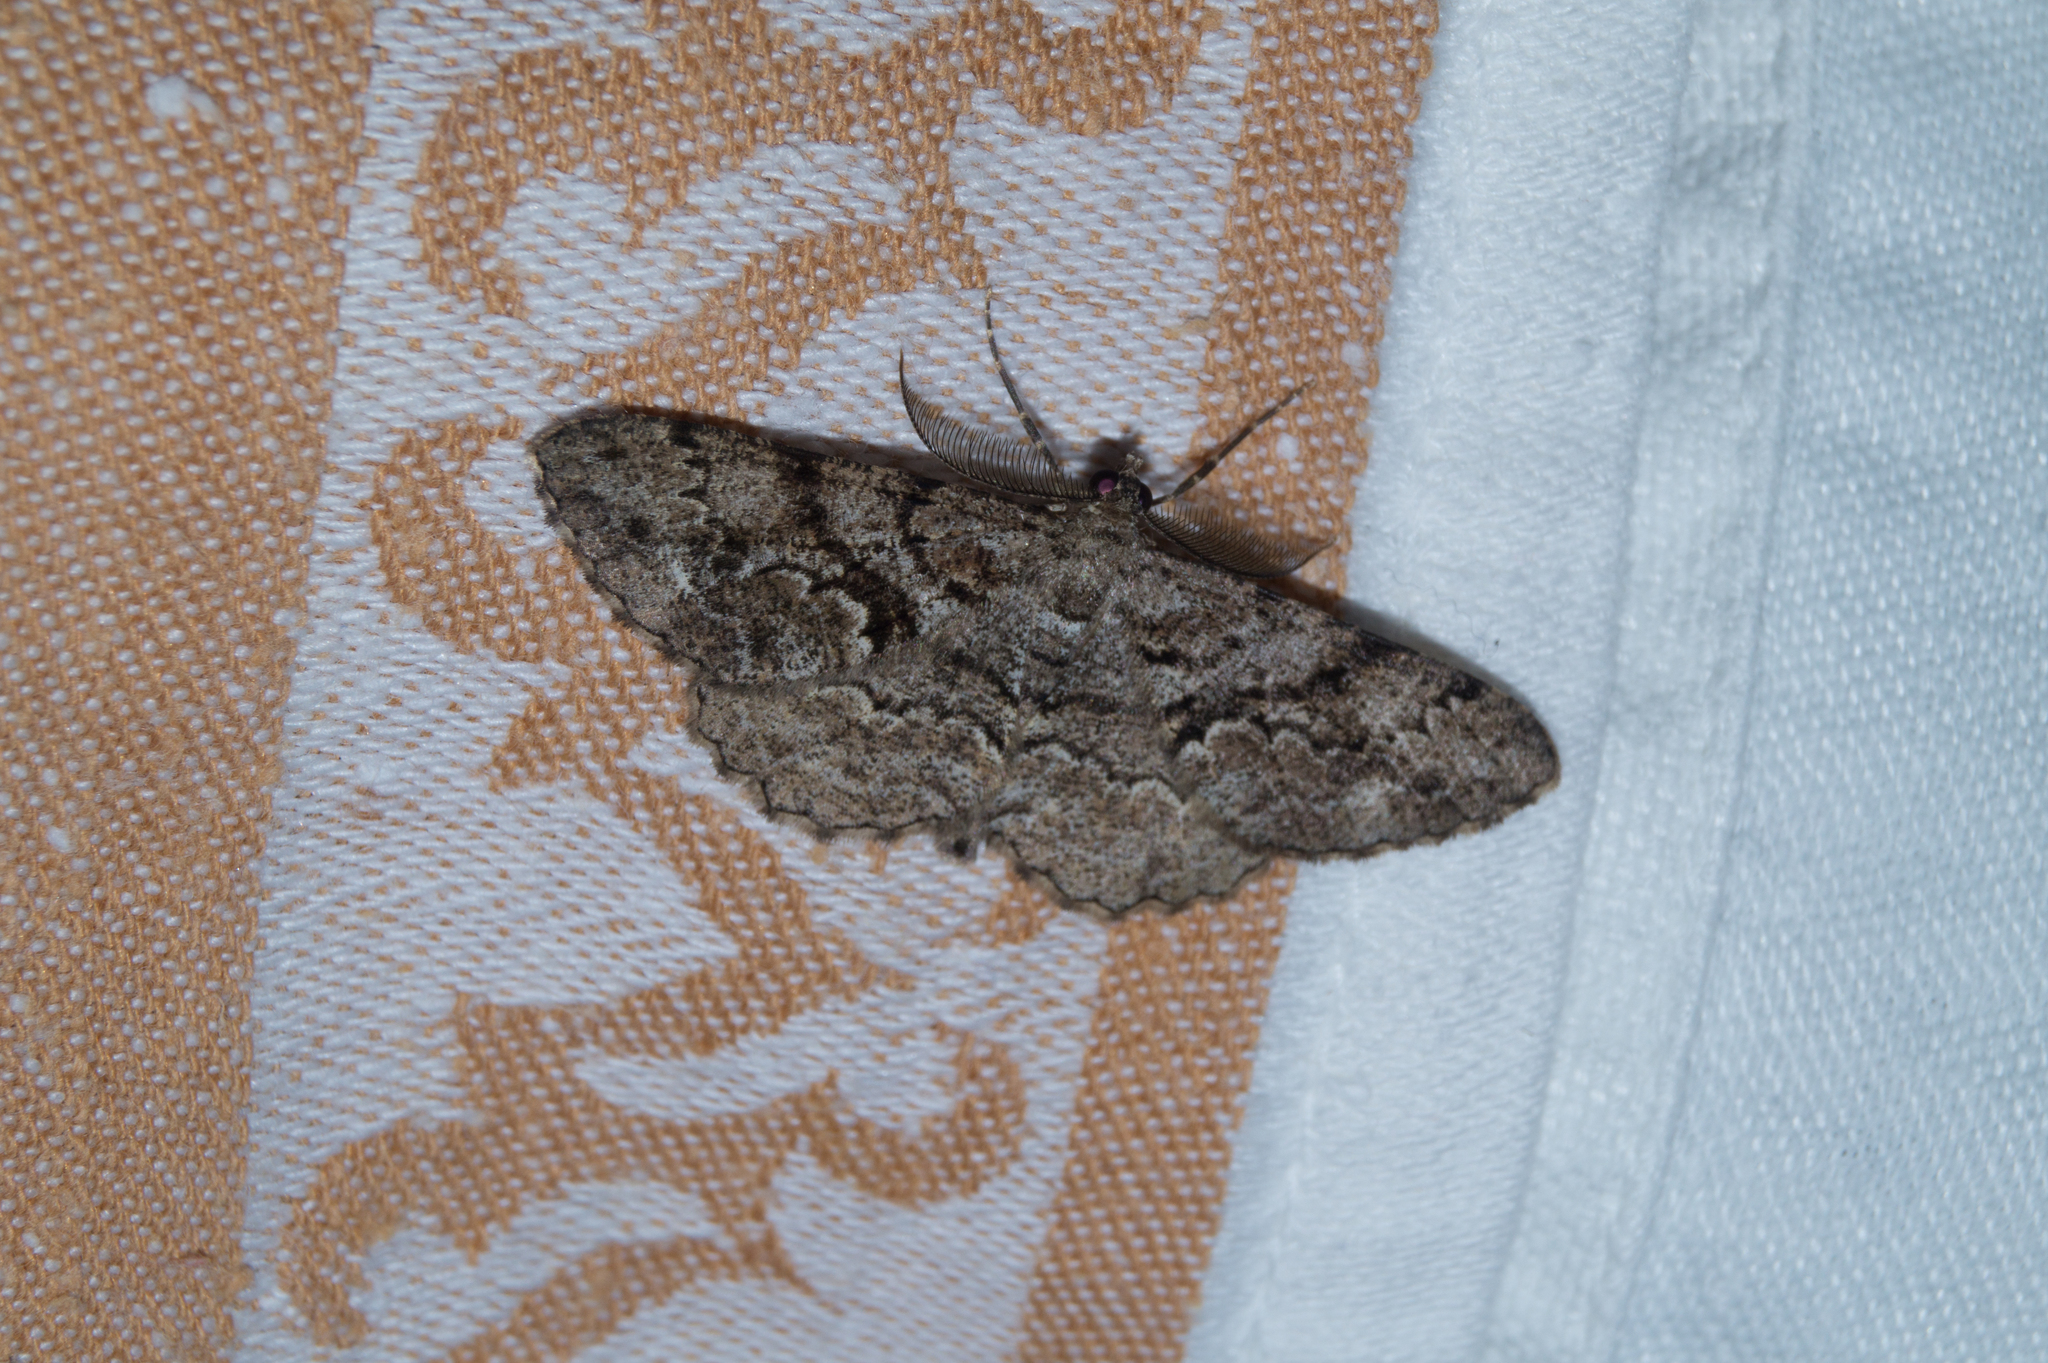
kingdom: Animalia
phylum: Arthropoda
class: Insecta
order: Lepidoptera
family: Geometridae
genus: Peribatodes
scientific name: Peribatodes secundaria
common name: Feathered beauty
